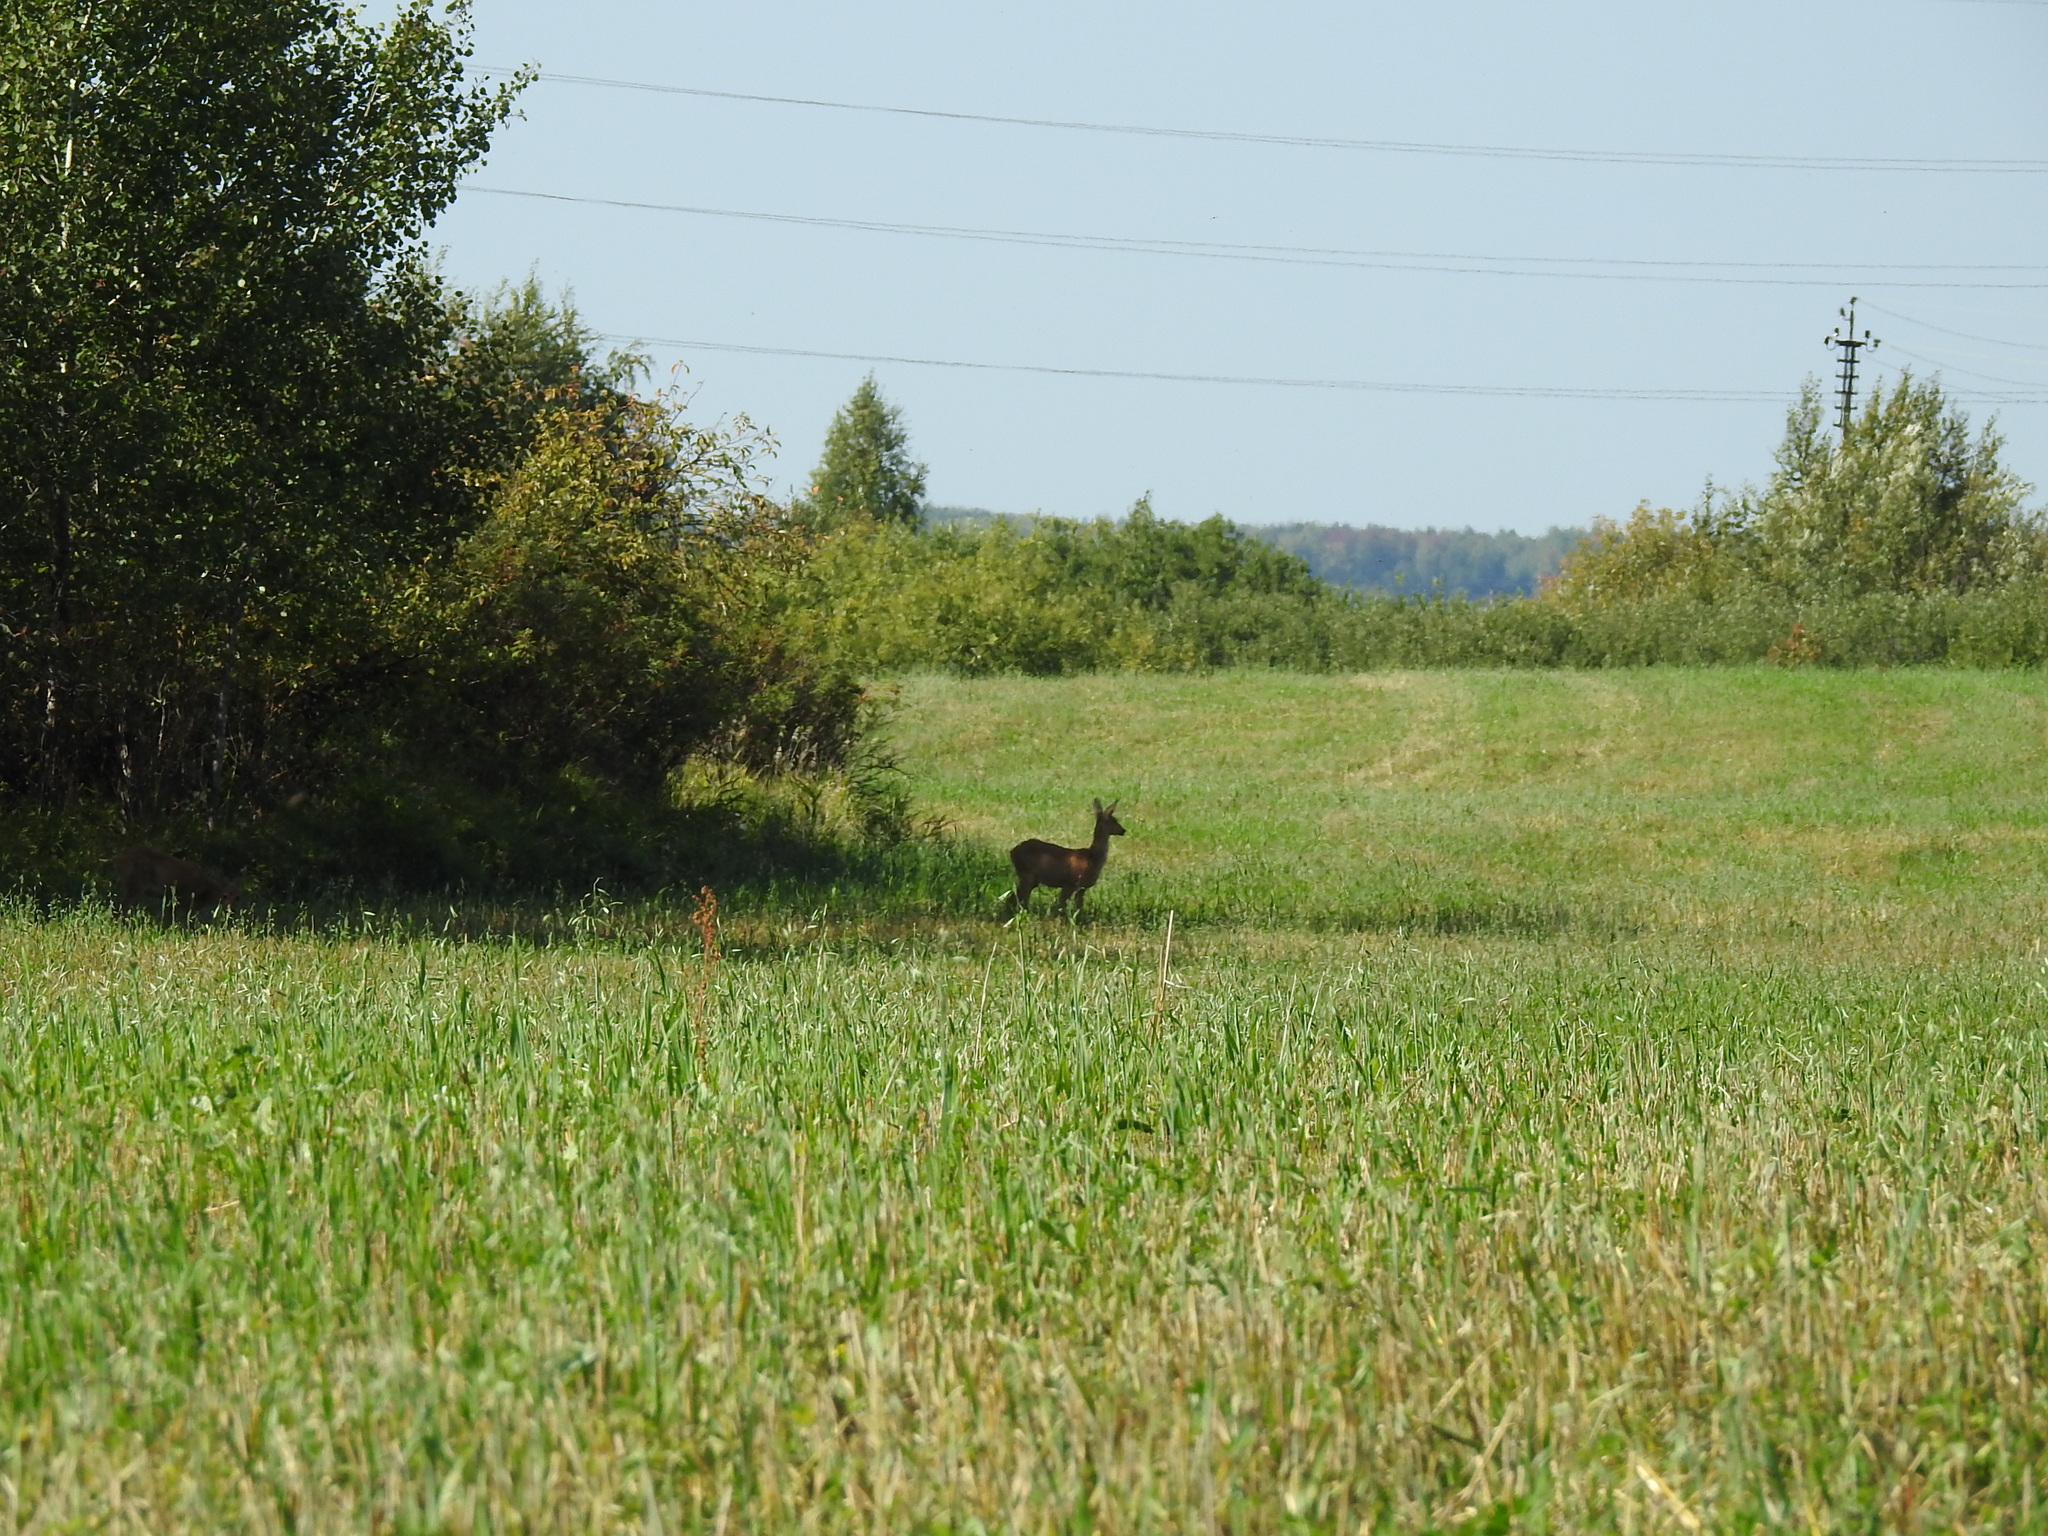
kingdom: Animalia
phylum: Chordata
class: Mammalia
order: Artiodactyla
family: Cervidae
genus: Capreolus
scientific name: Capreolus pygargus
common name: Siberian roe
